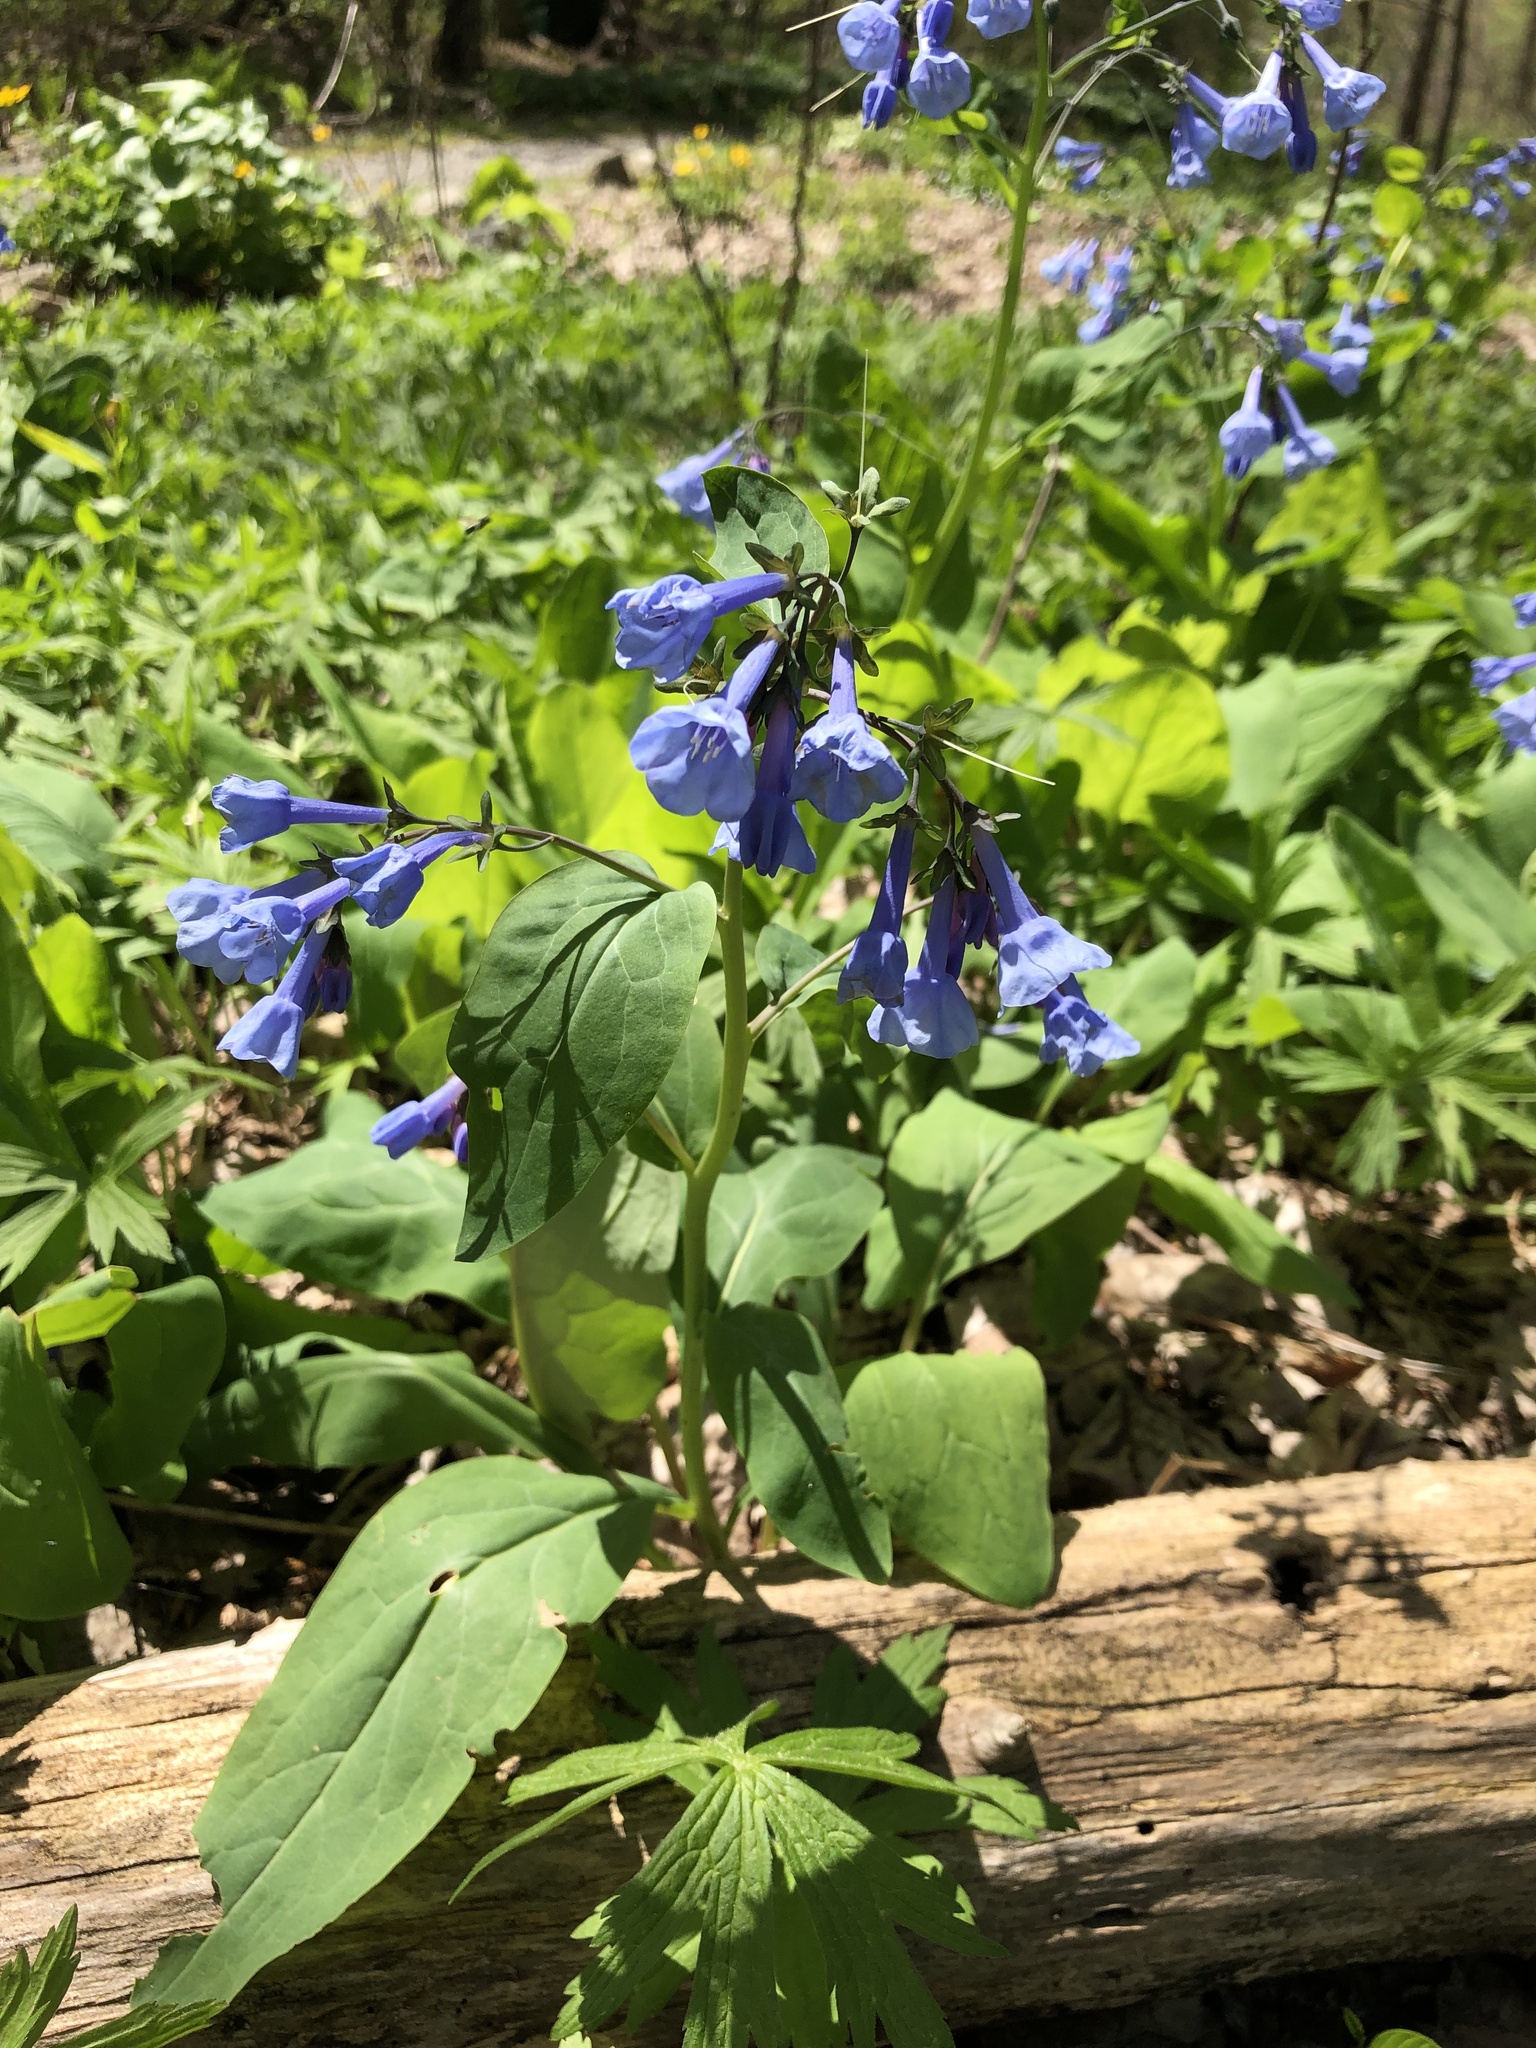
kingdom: Plantae
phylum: Tracheophyta
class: Magnoliopsida
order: Boraginales
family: Boraginaceae
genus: Mertensia
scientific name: Mertensia virginica
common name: Virginia bluebells
